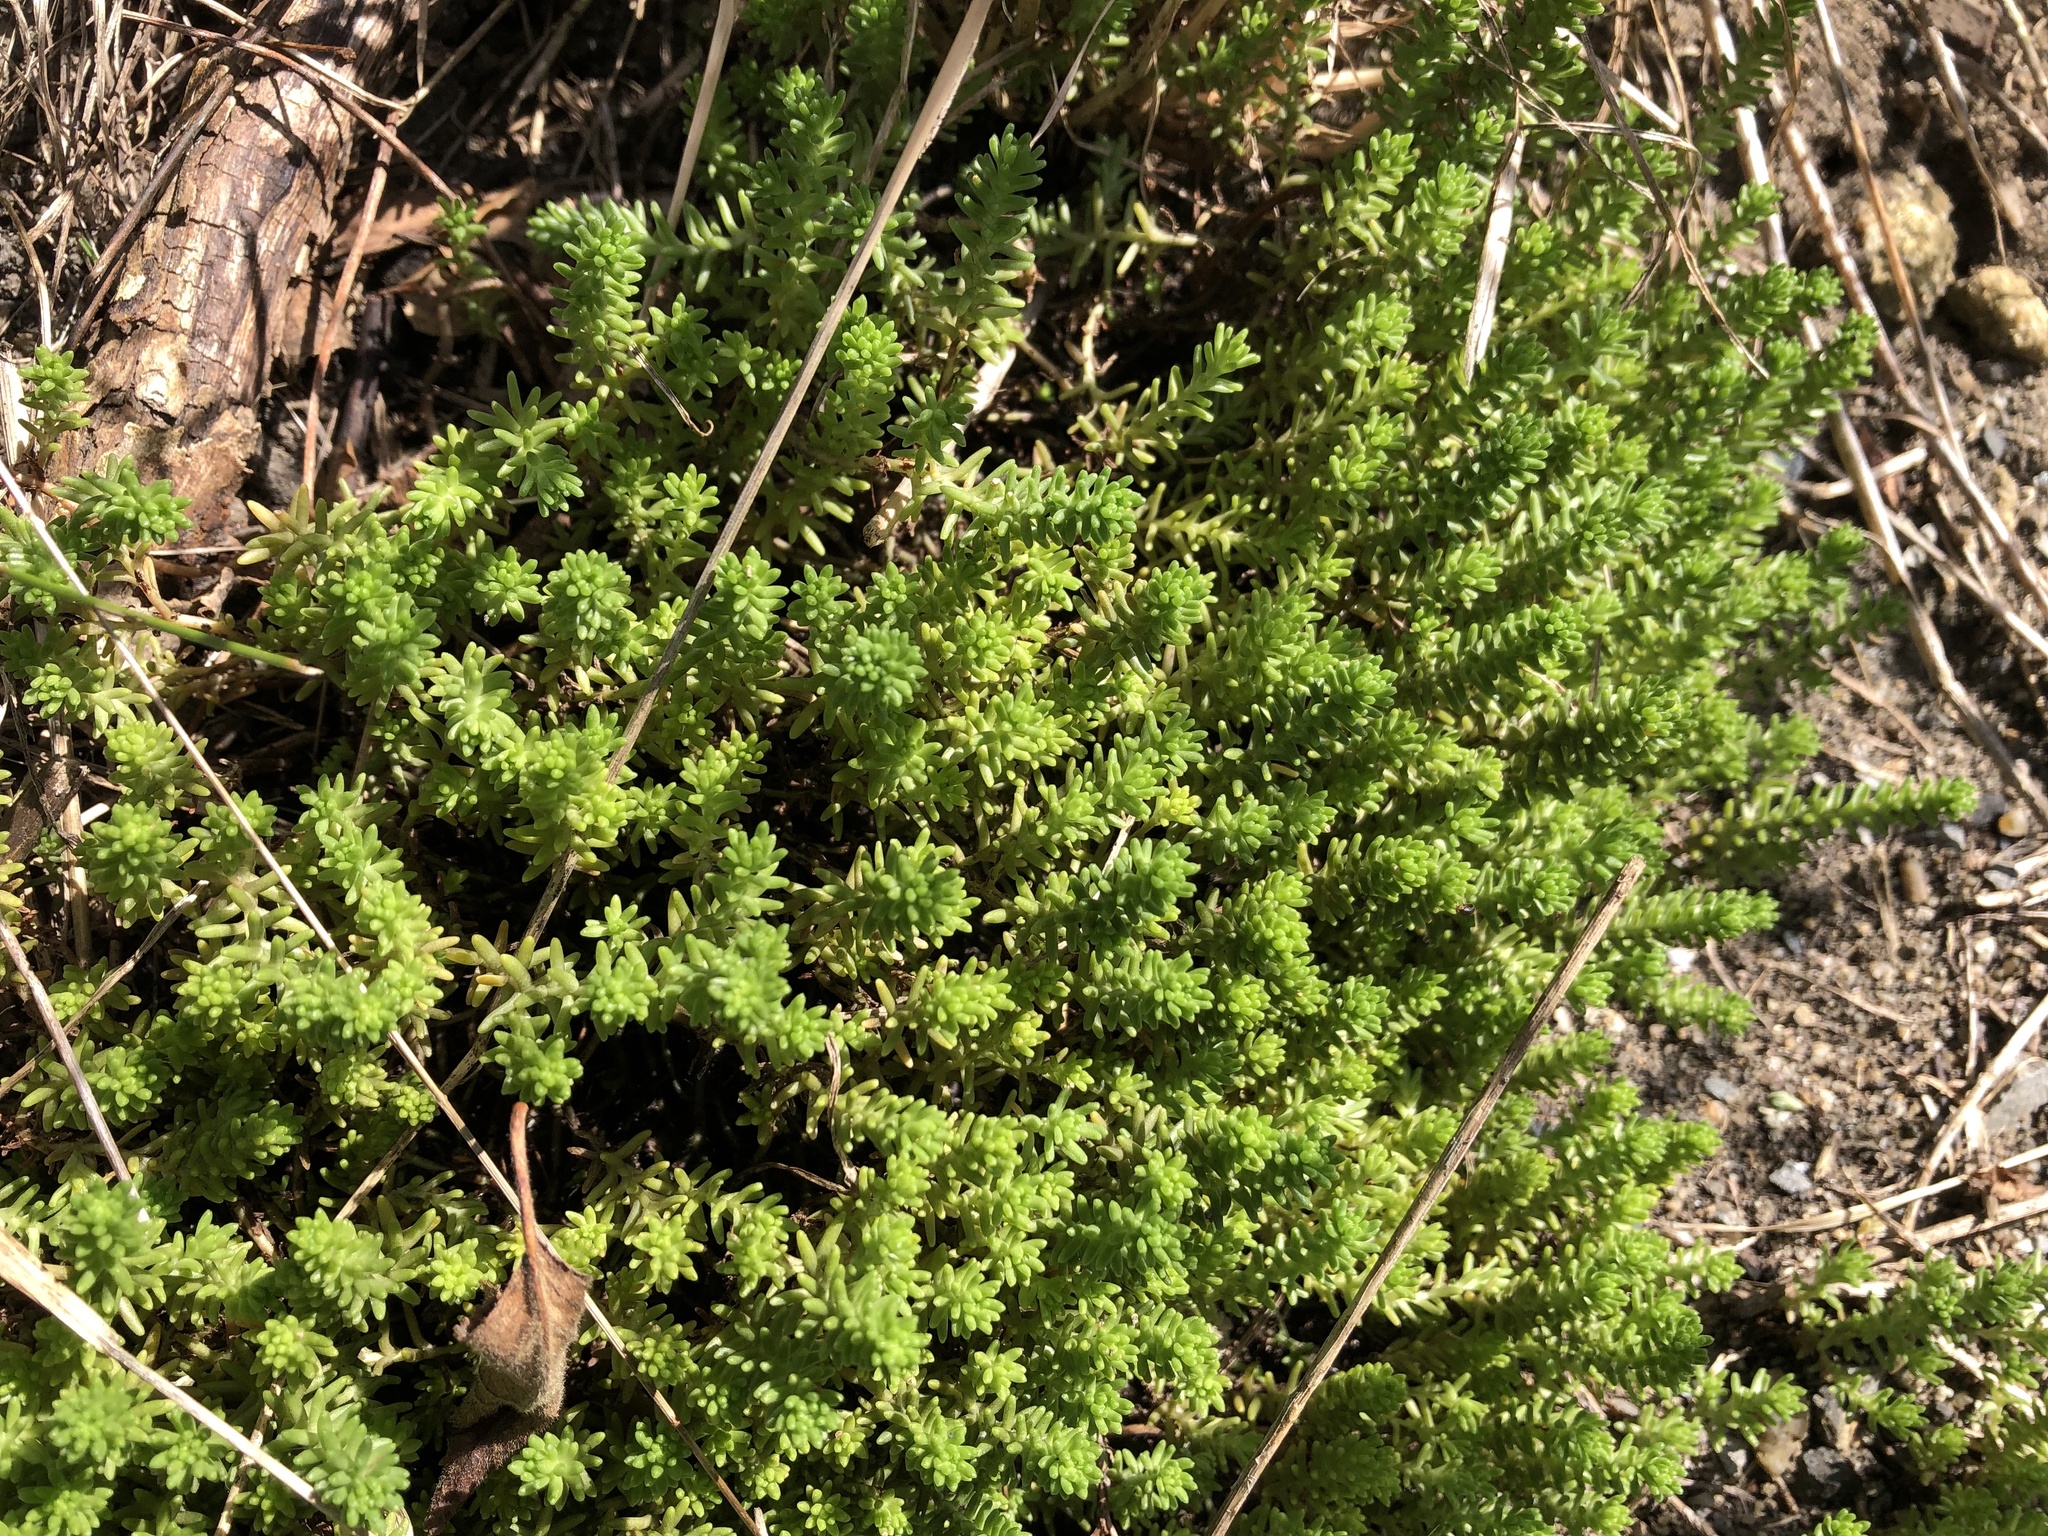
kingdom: Plantae
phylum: Tracheophyta
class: Magnoliopsida
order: Saxifragales
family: Crassulaceae
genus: Sedum
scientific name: Sedum sexangulare
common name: Tasteless stonecrop
